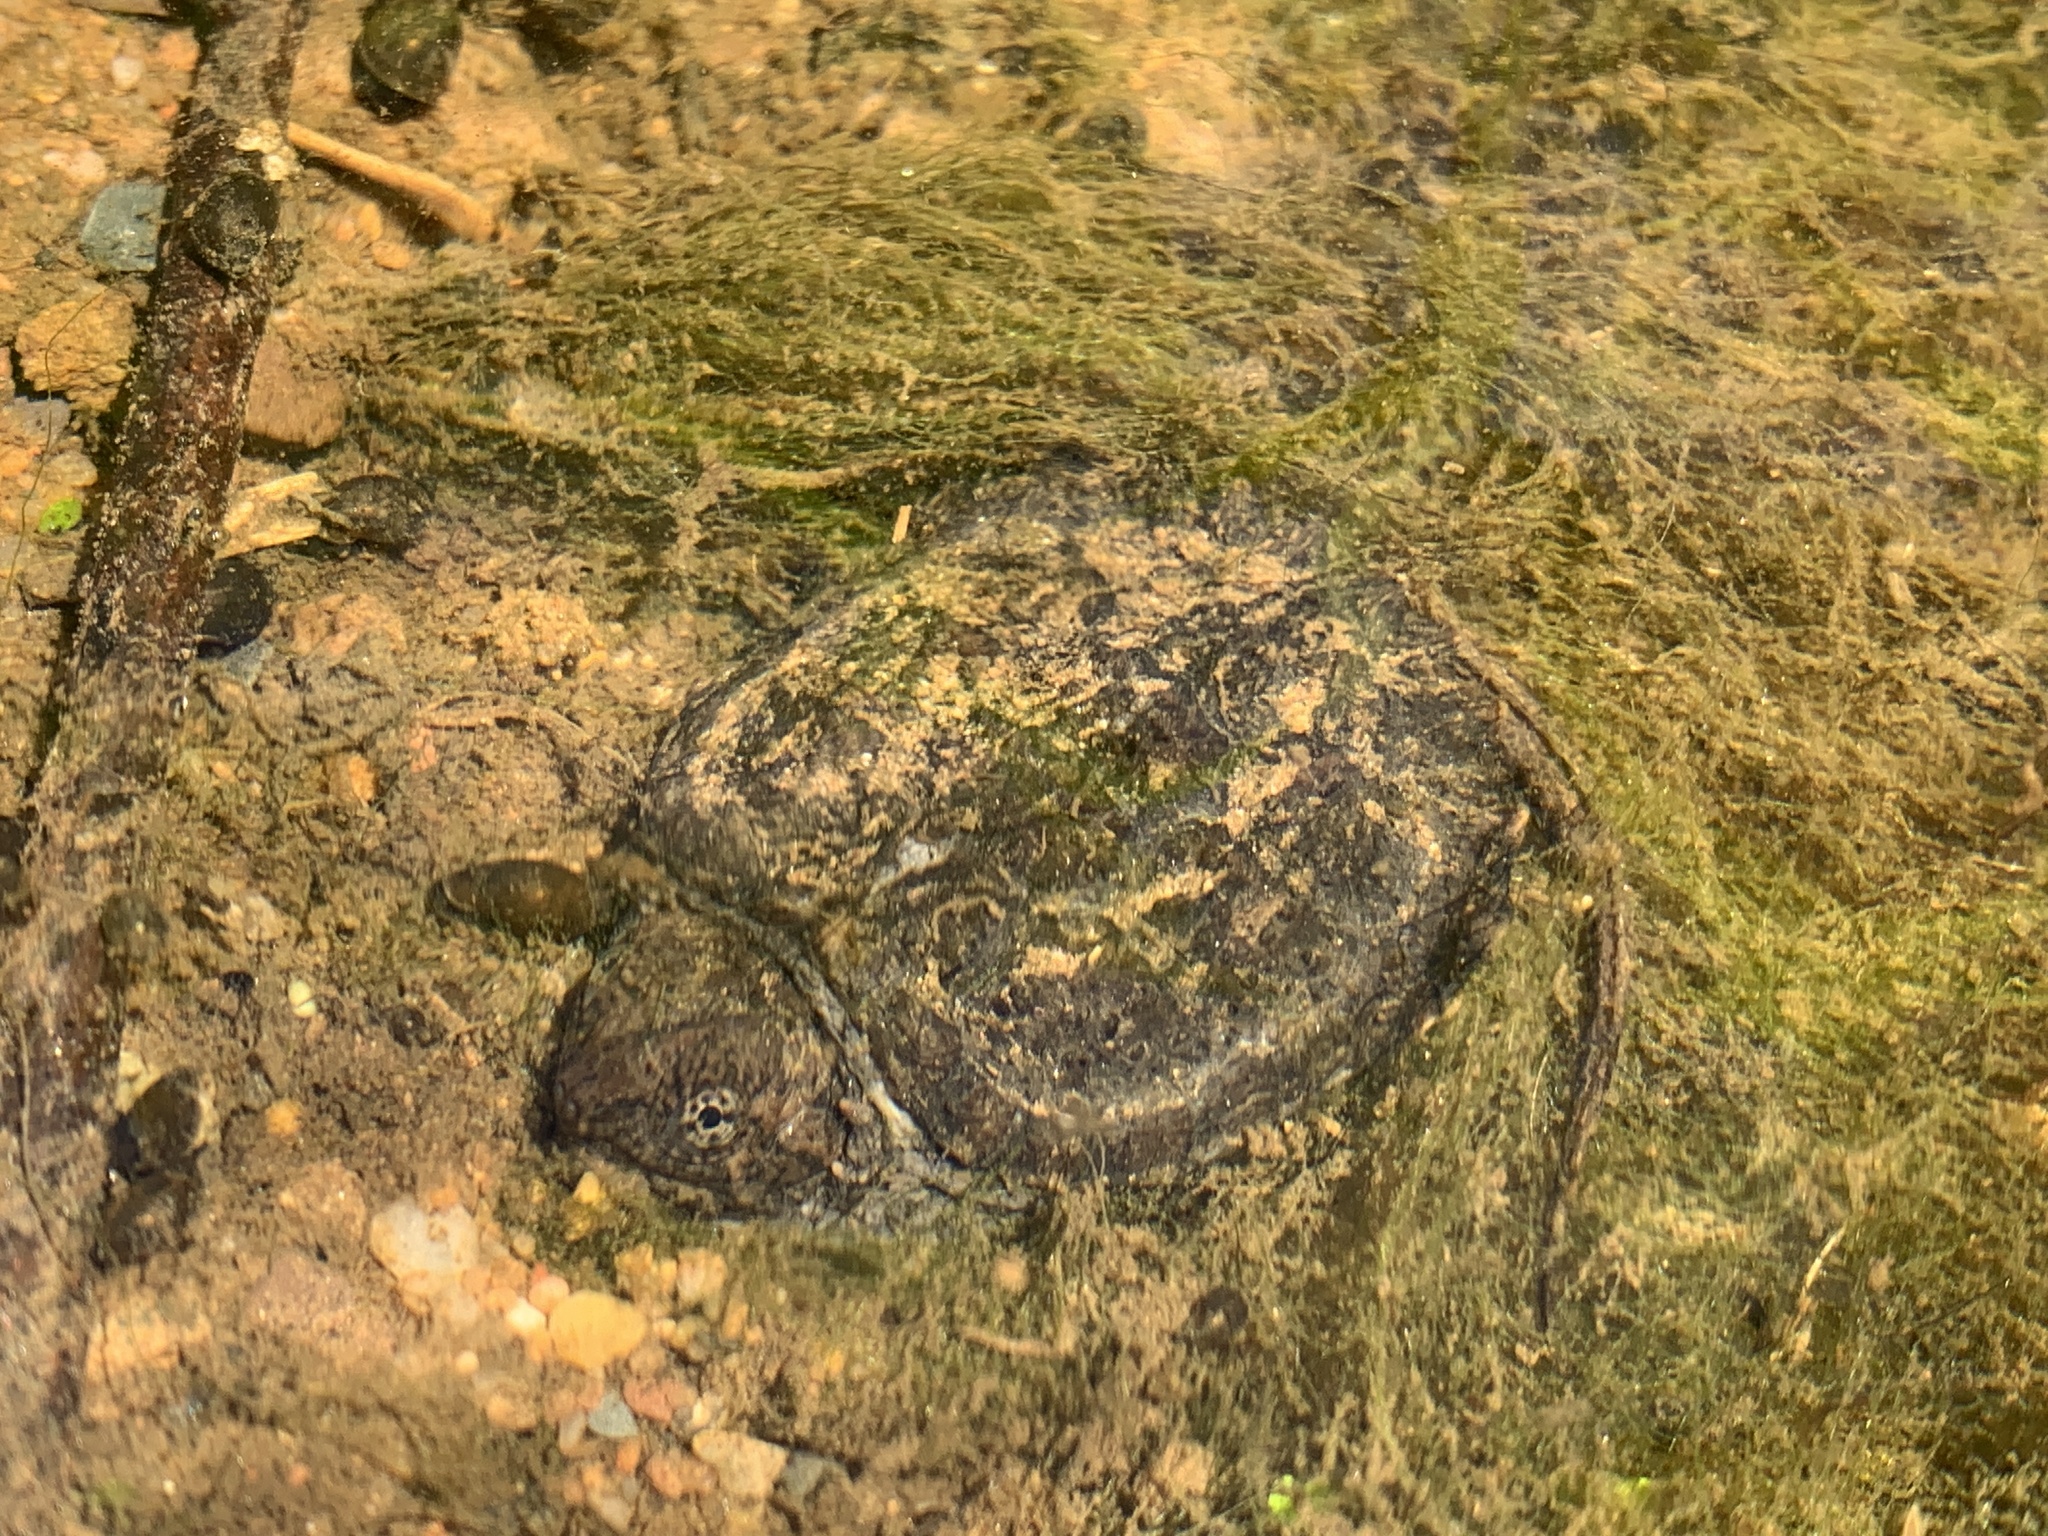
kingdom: Animalia
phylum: Chordata
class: Testudines
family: Chelydridae
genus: Chelydra
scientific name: Chelydra serpentina
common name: Common snapping turtle
